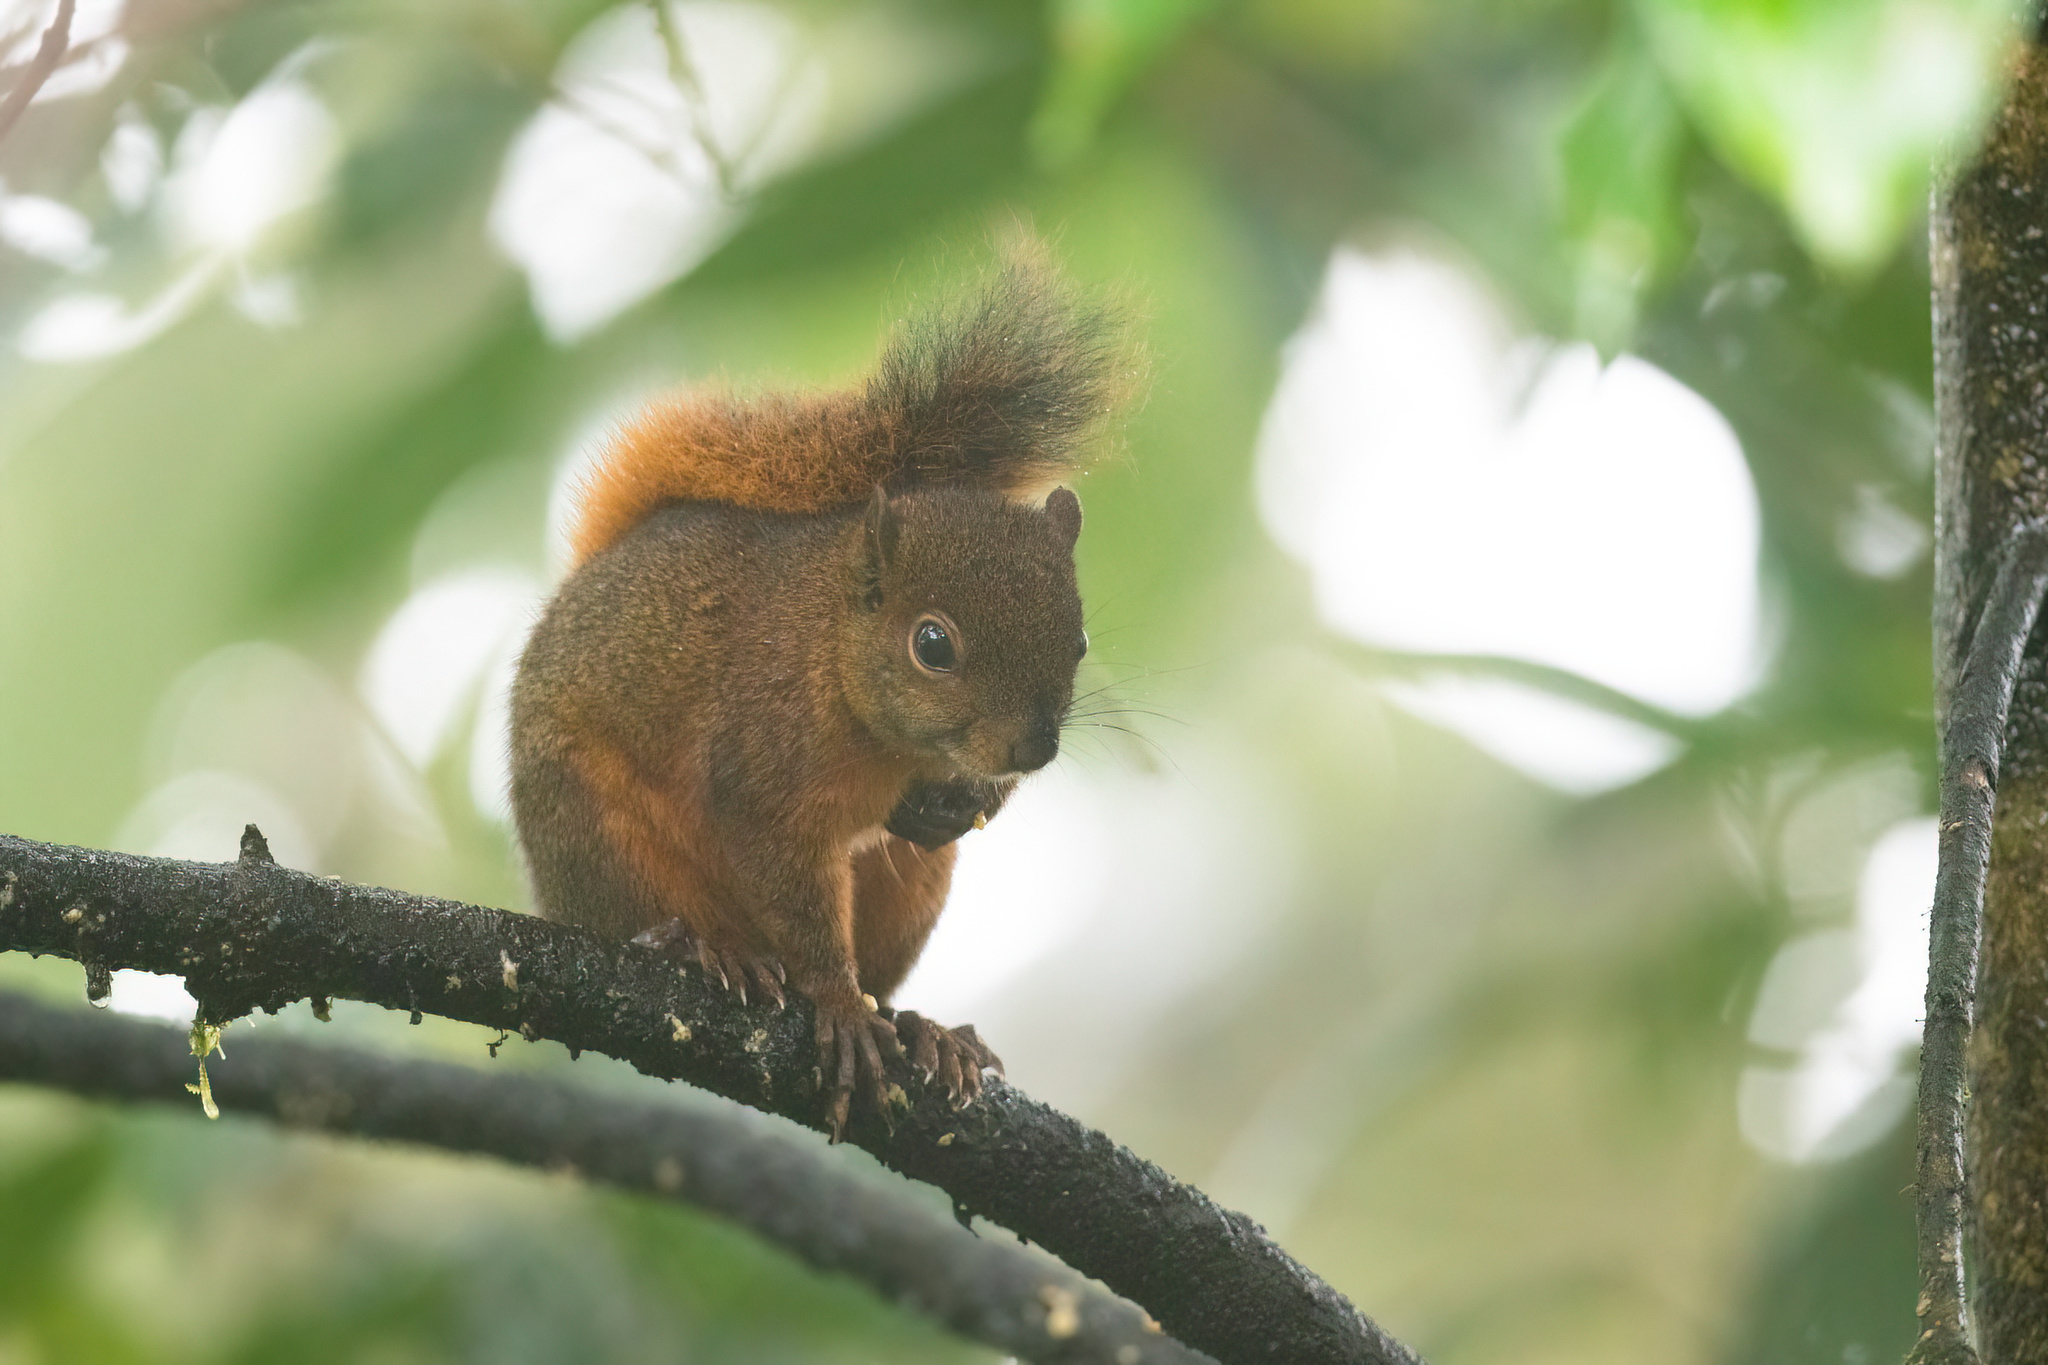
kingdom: Animalia
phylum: Chordata
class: Mammalia
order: Rodentia
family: Sciuridae
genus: Sciurus
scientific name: Sciurus granatensis
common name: Red-tailed squirrel
